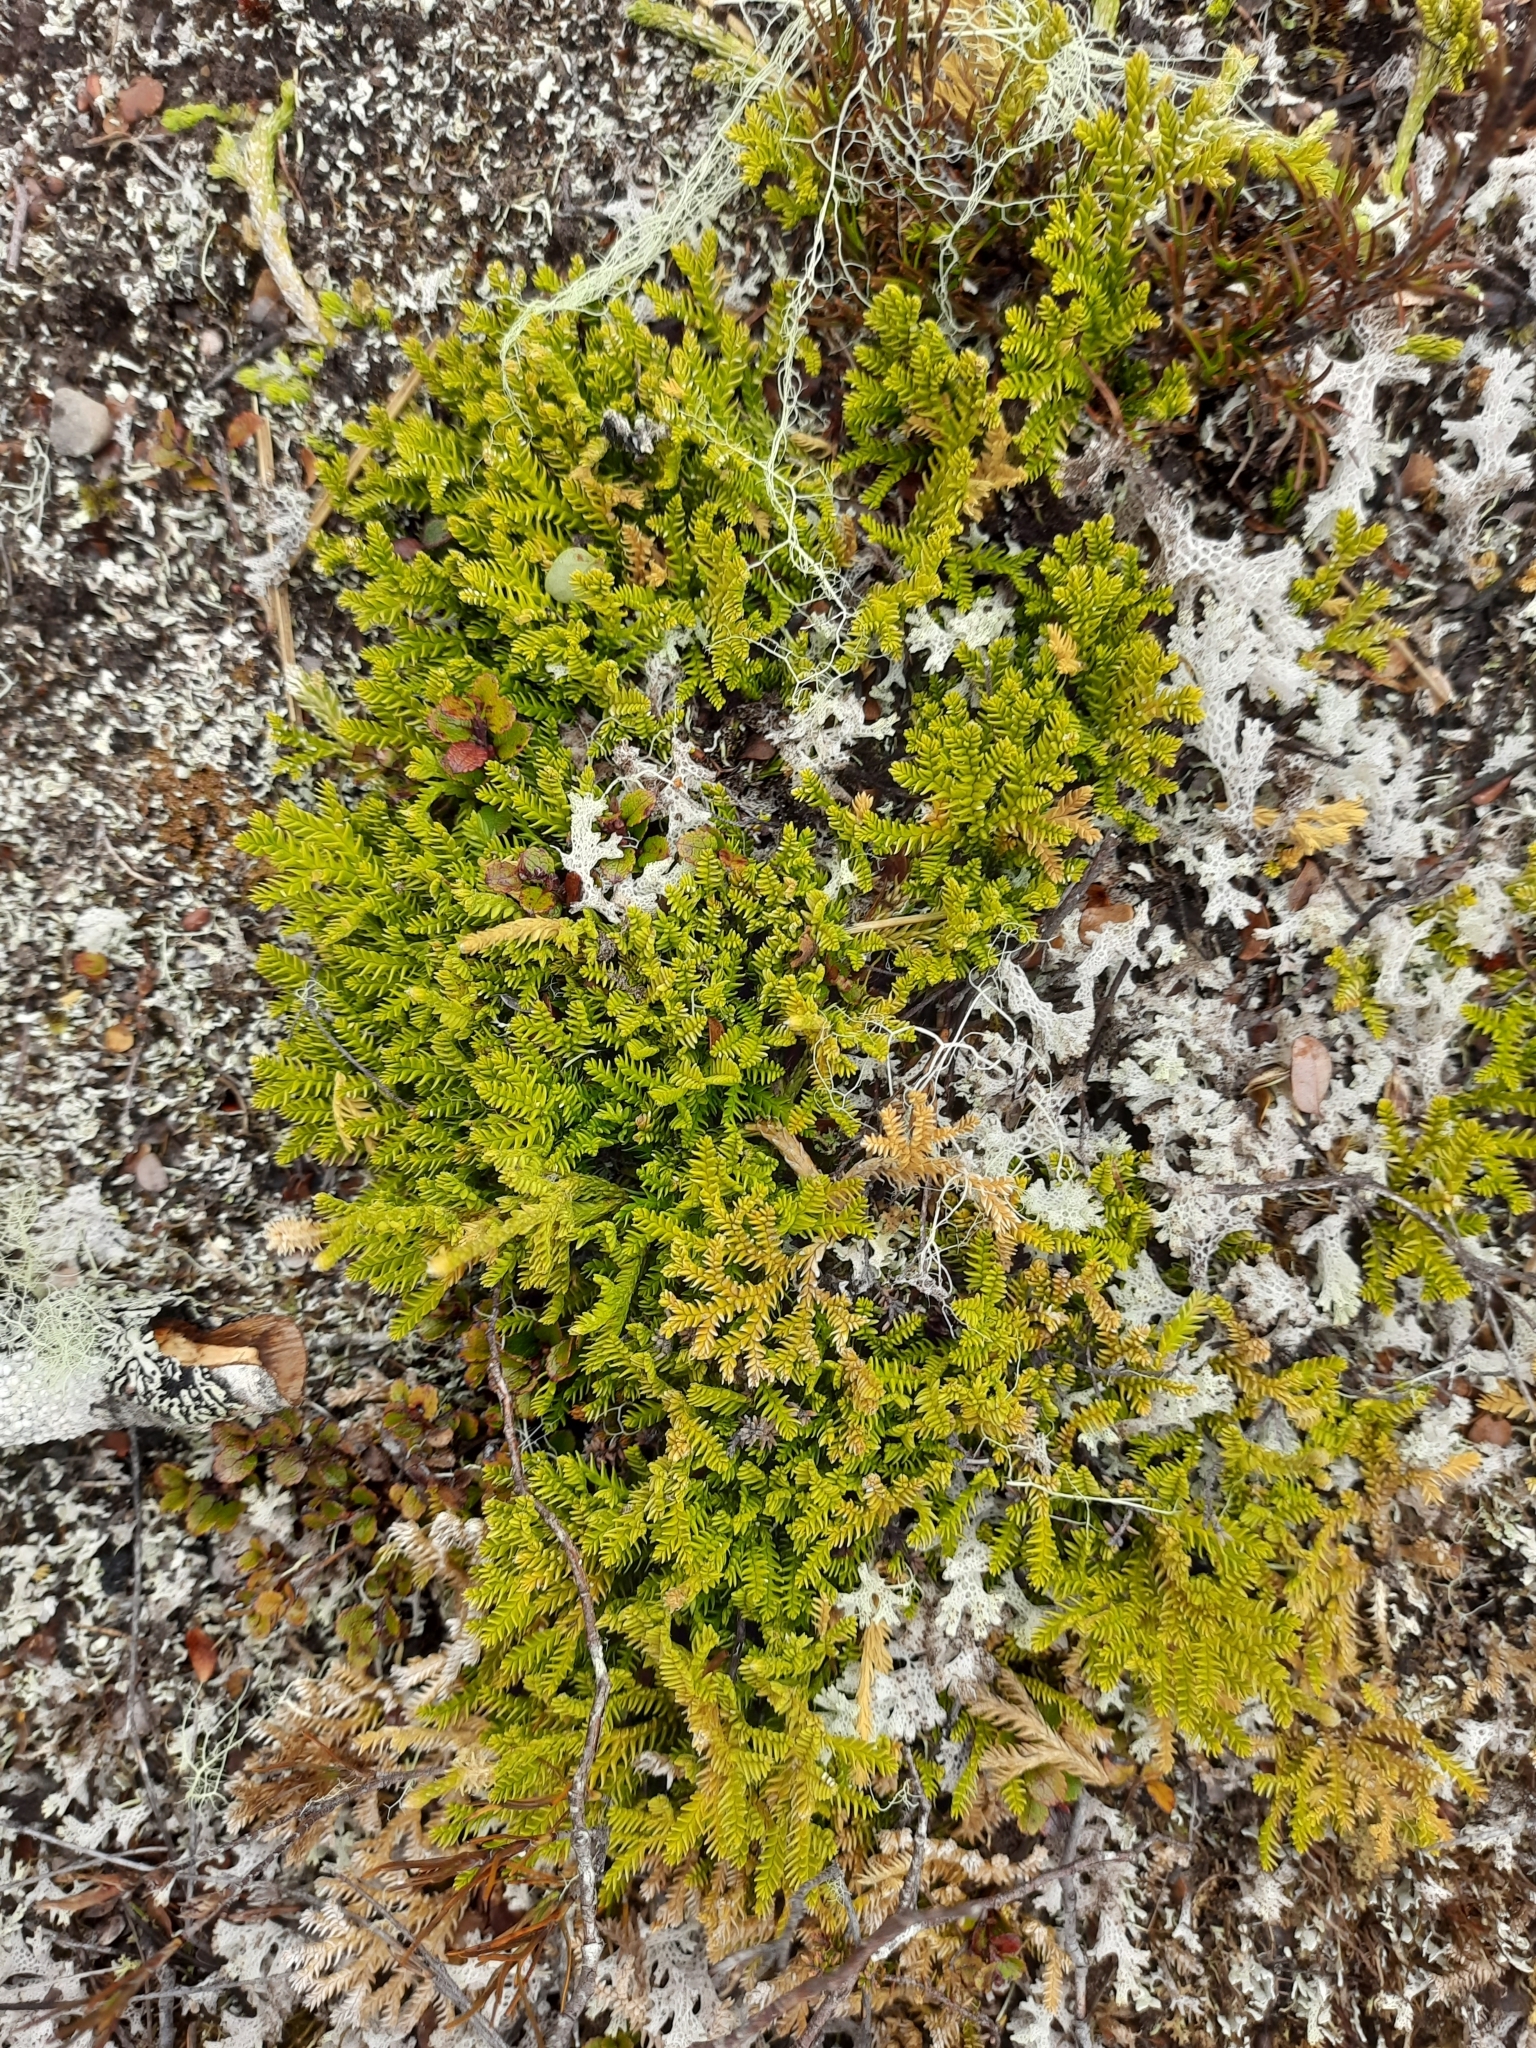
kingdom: Plantae
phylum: Tracheophyta
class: Lycopodiopsida
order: Lycopodiales
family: Lycopodiaceae
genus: Diphasium
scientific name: Diphasium scariosum
